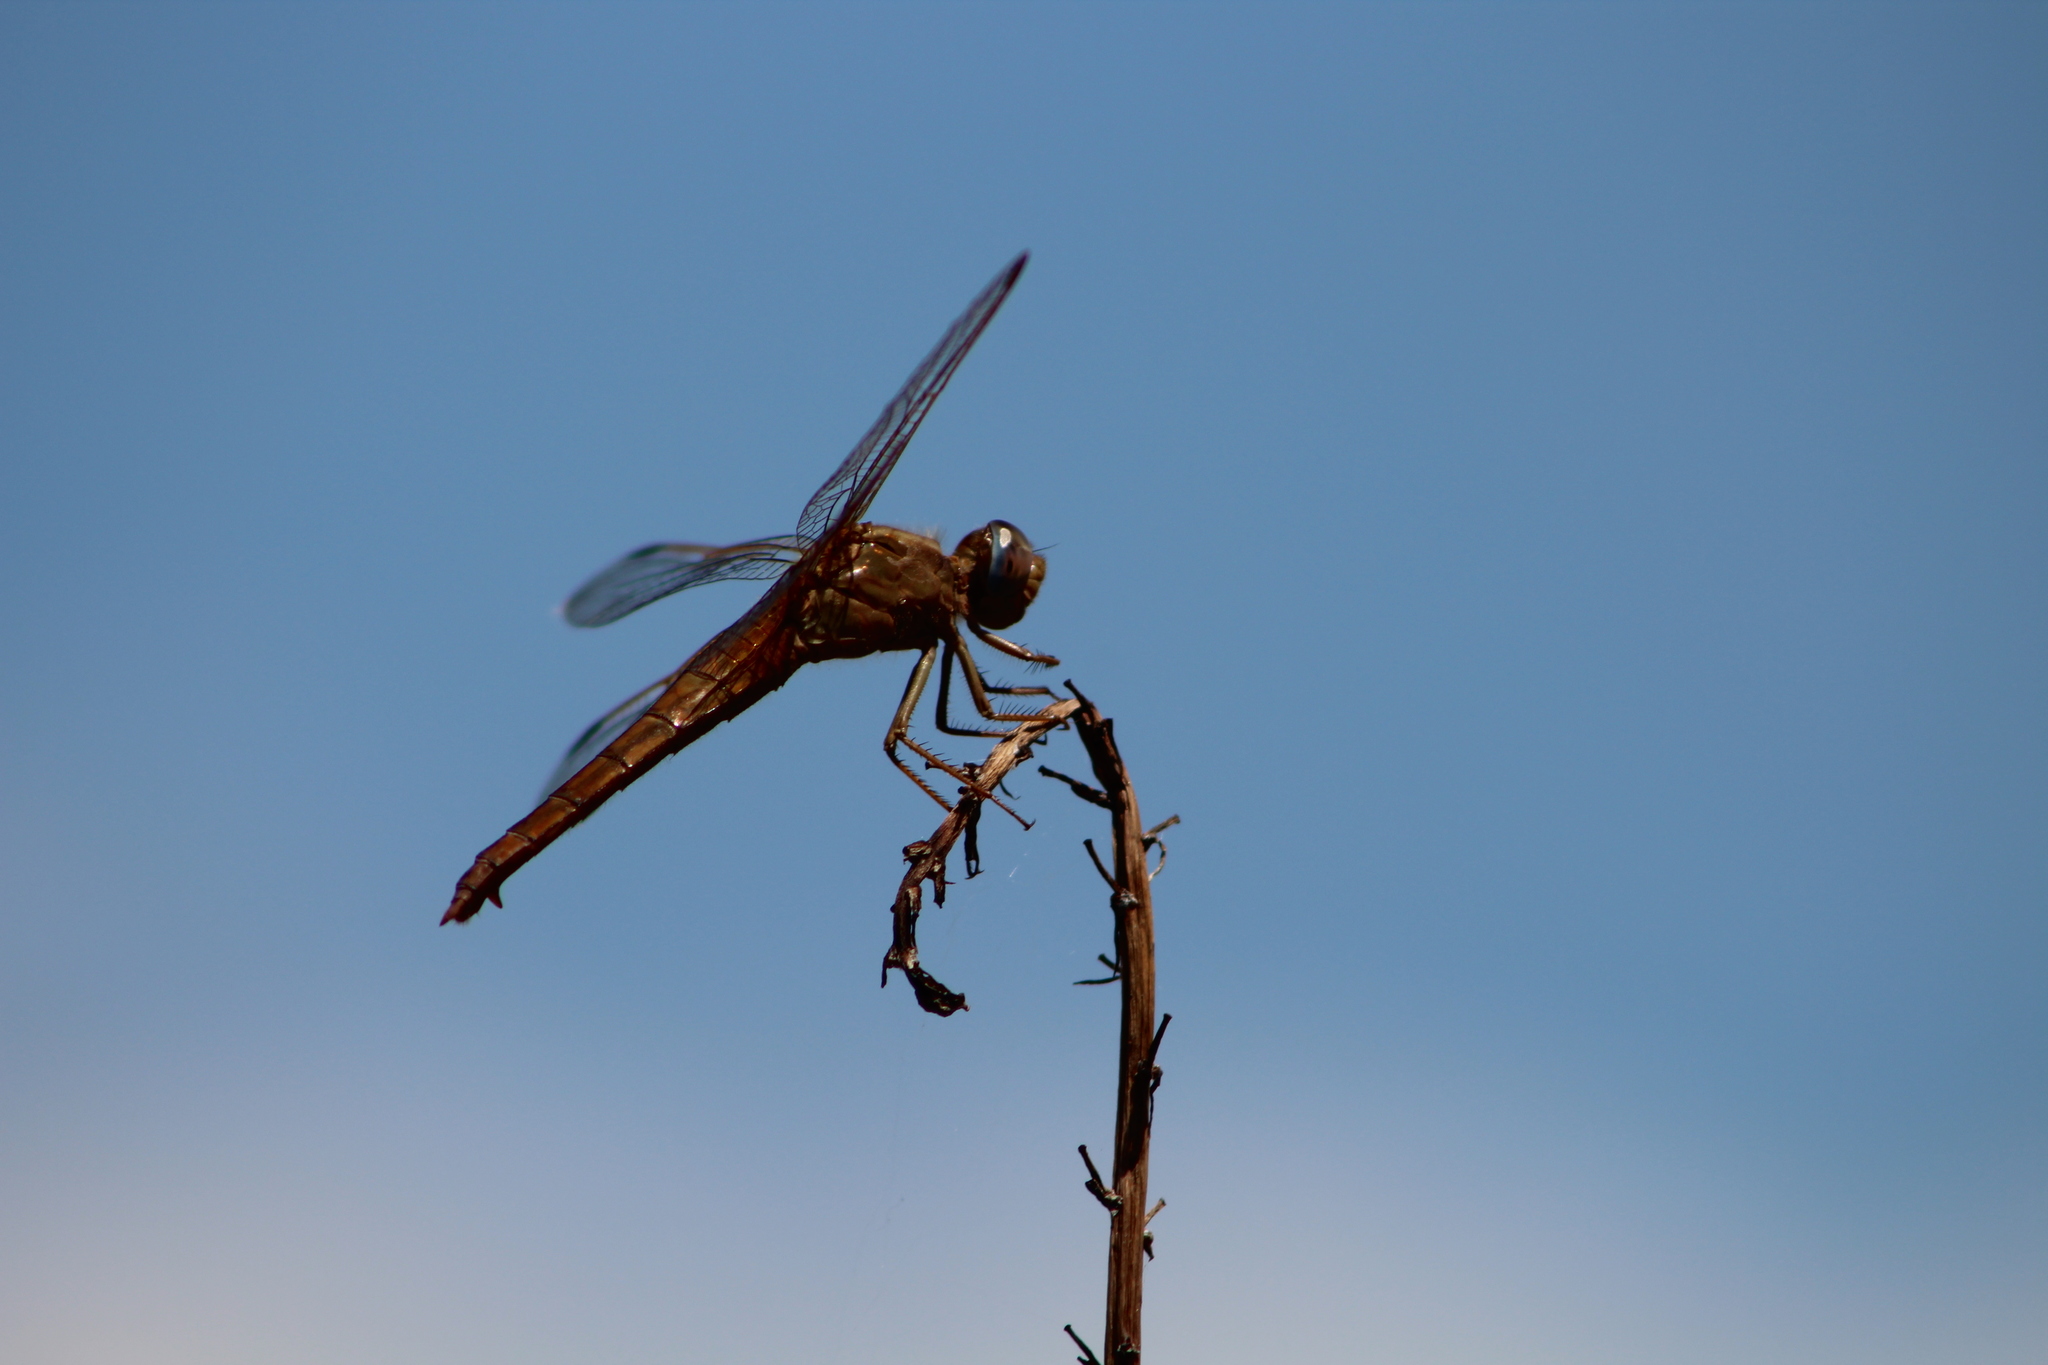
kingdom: Animalia
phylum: Arthropoda
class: Insecta
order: Odonata
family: Libellulidae
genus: Crocothemis
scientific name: Crocothemis erythraea
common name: Scarlet dragonfly
